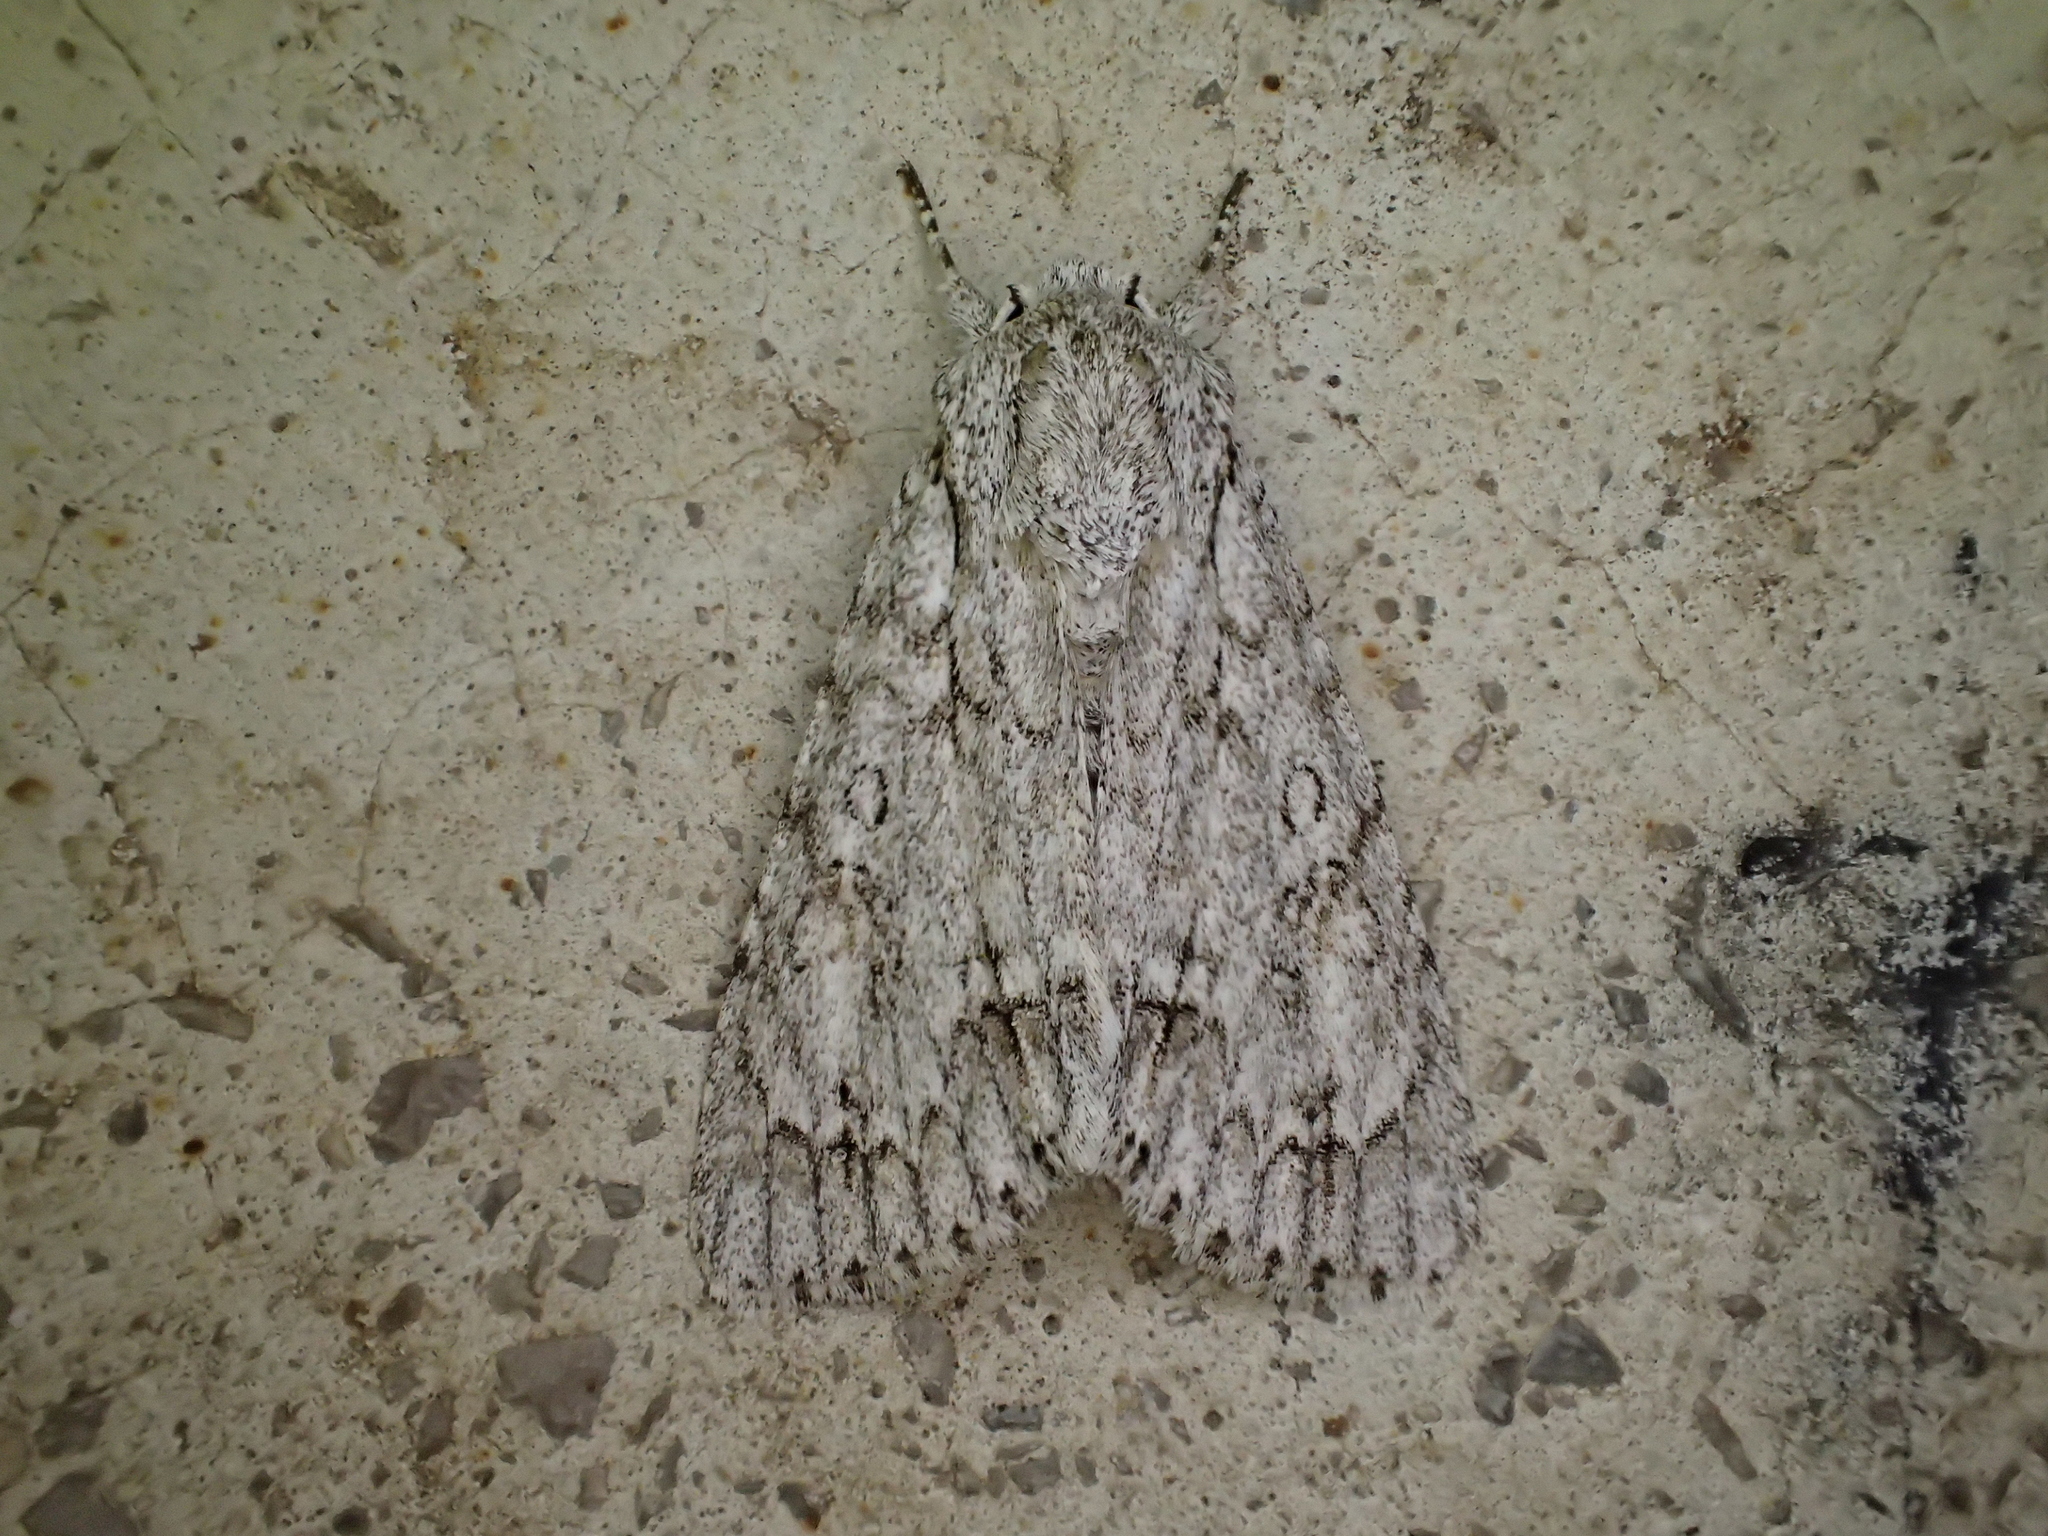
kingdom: Animalia
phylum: Arthropoda
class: Insecta
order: Lepidoptera
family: Noctuidae
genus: Acronicta
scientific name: Acronicta aceris
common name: Sycamore
